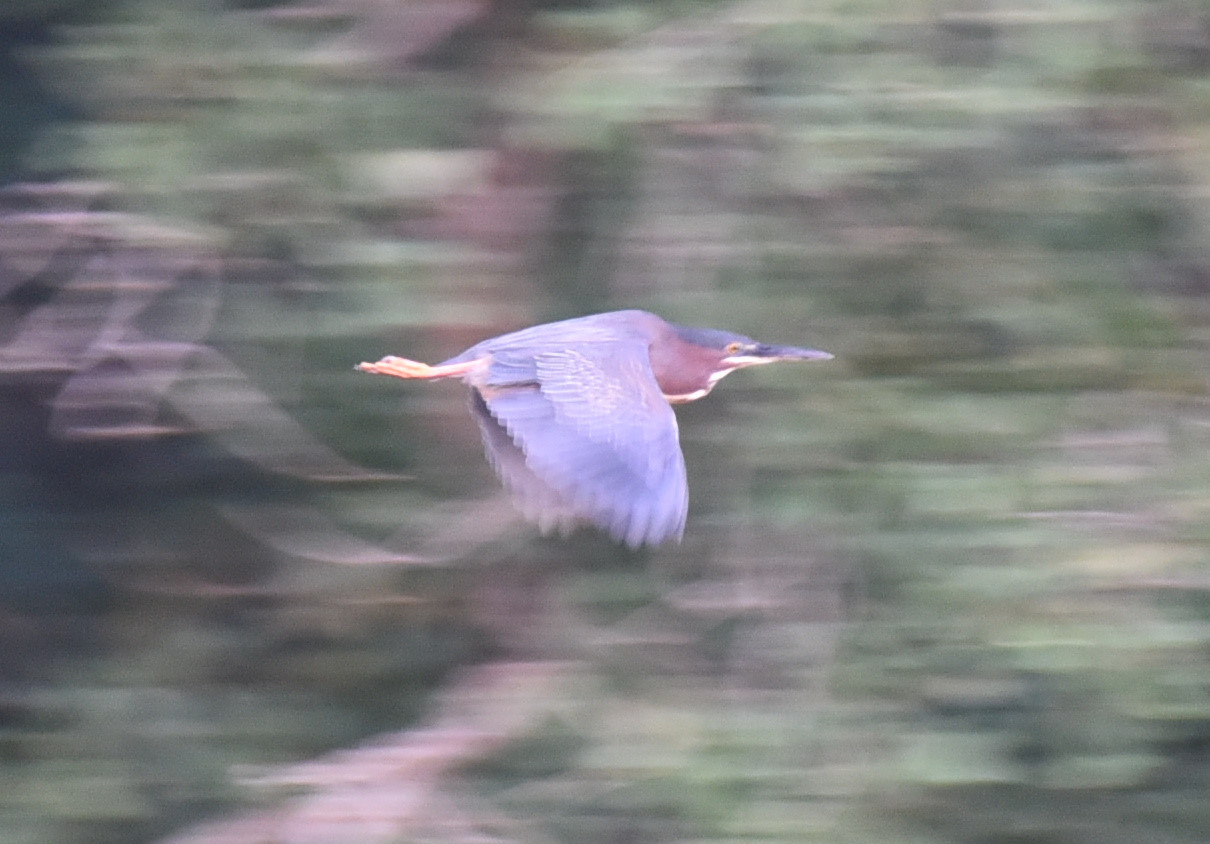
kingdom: Animalia
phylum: Chordata
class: Aves
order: Pelecaniformes
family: Ardeidae
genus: Butorides
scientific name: Butorides virescens
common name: Green heron
